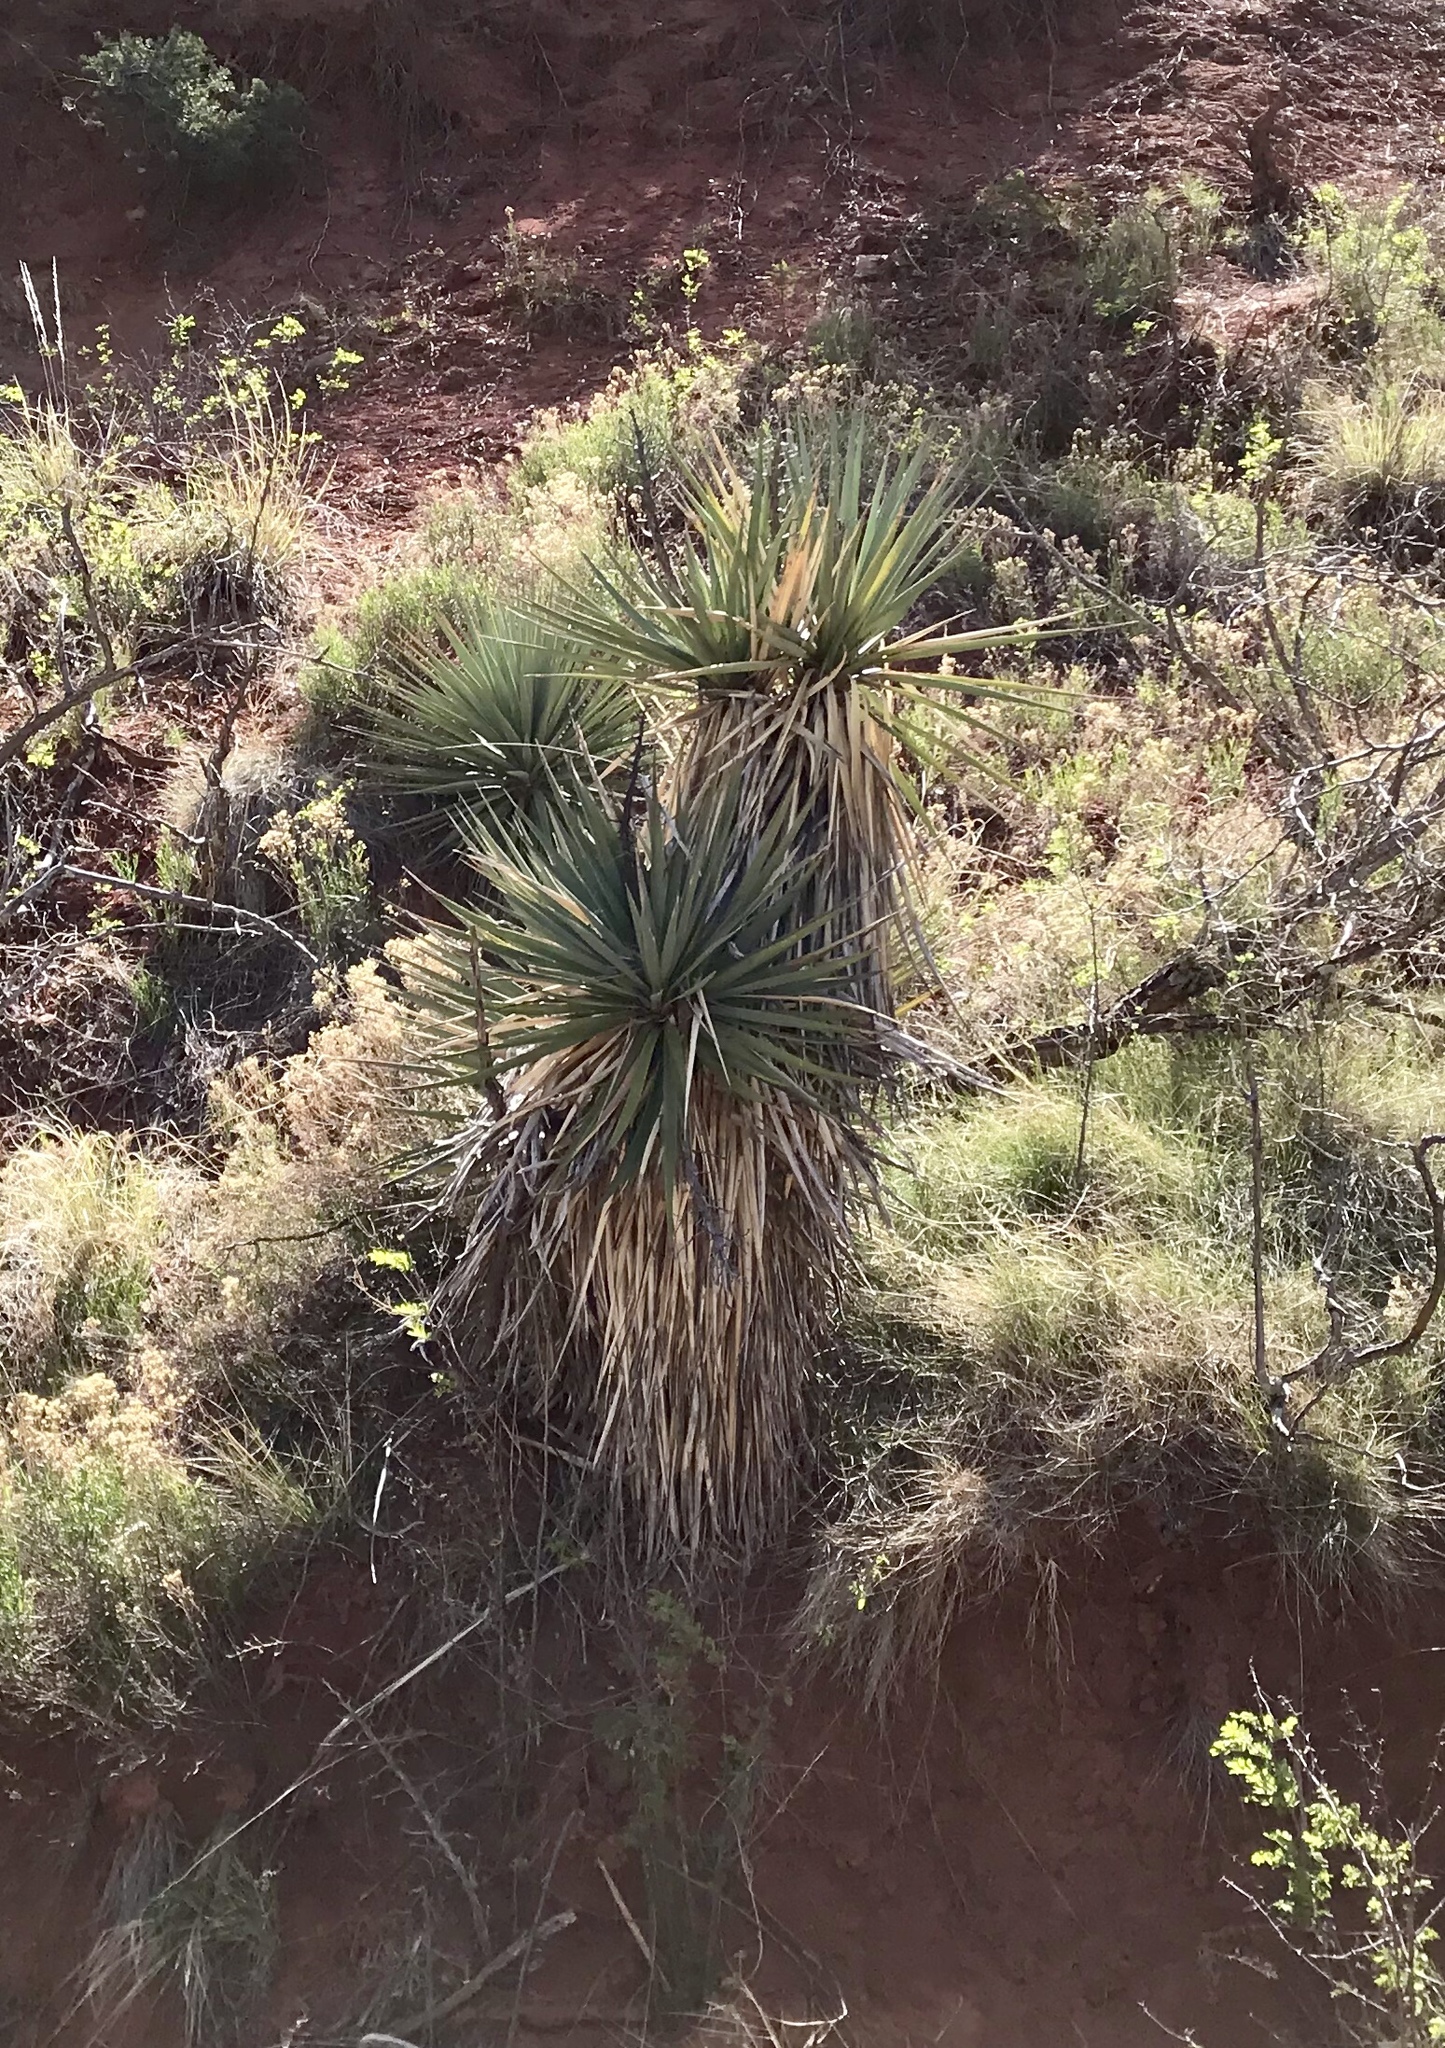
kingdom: Plantae
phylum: Tracheophyta
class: Liliopsida
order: Asparagales
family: Asparagaceae
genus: Yucca
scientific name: Yucca madrensis
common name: Hoary yucca
